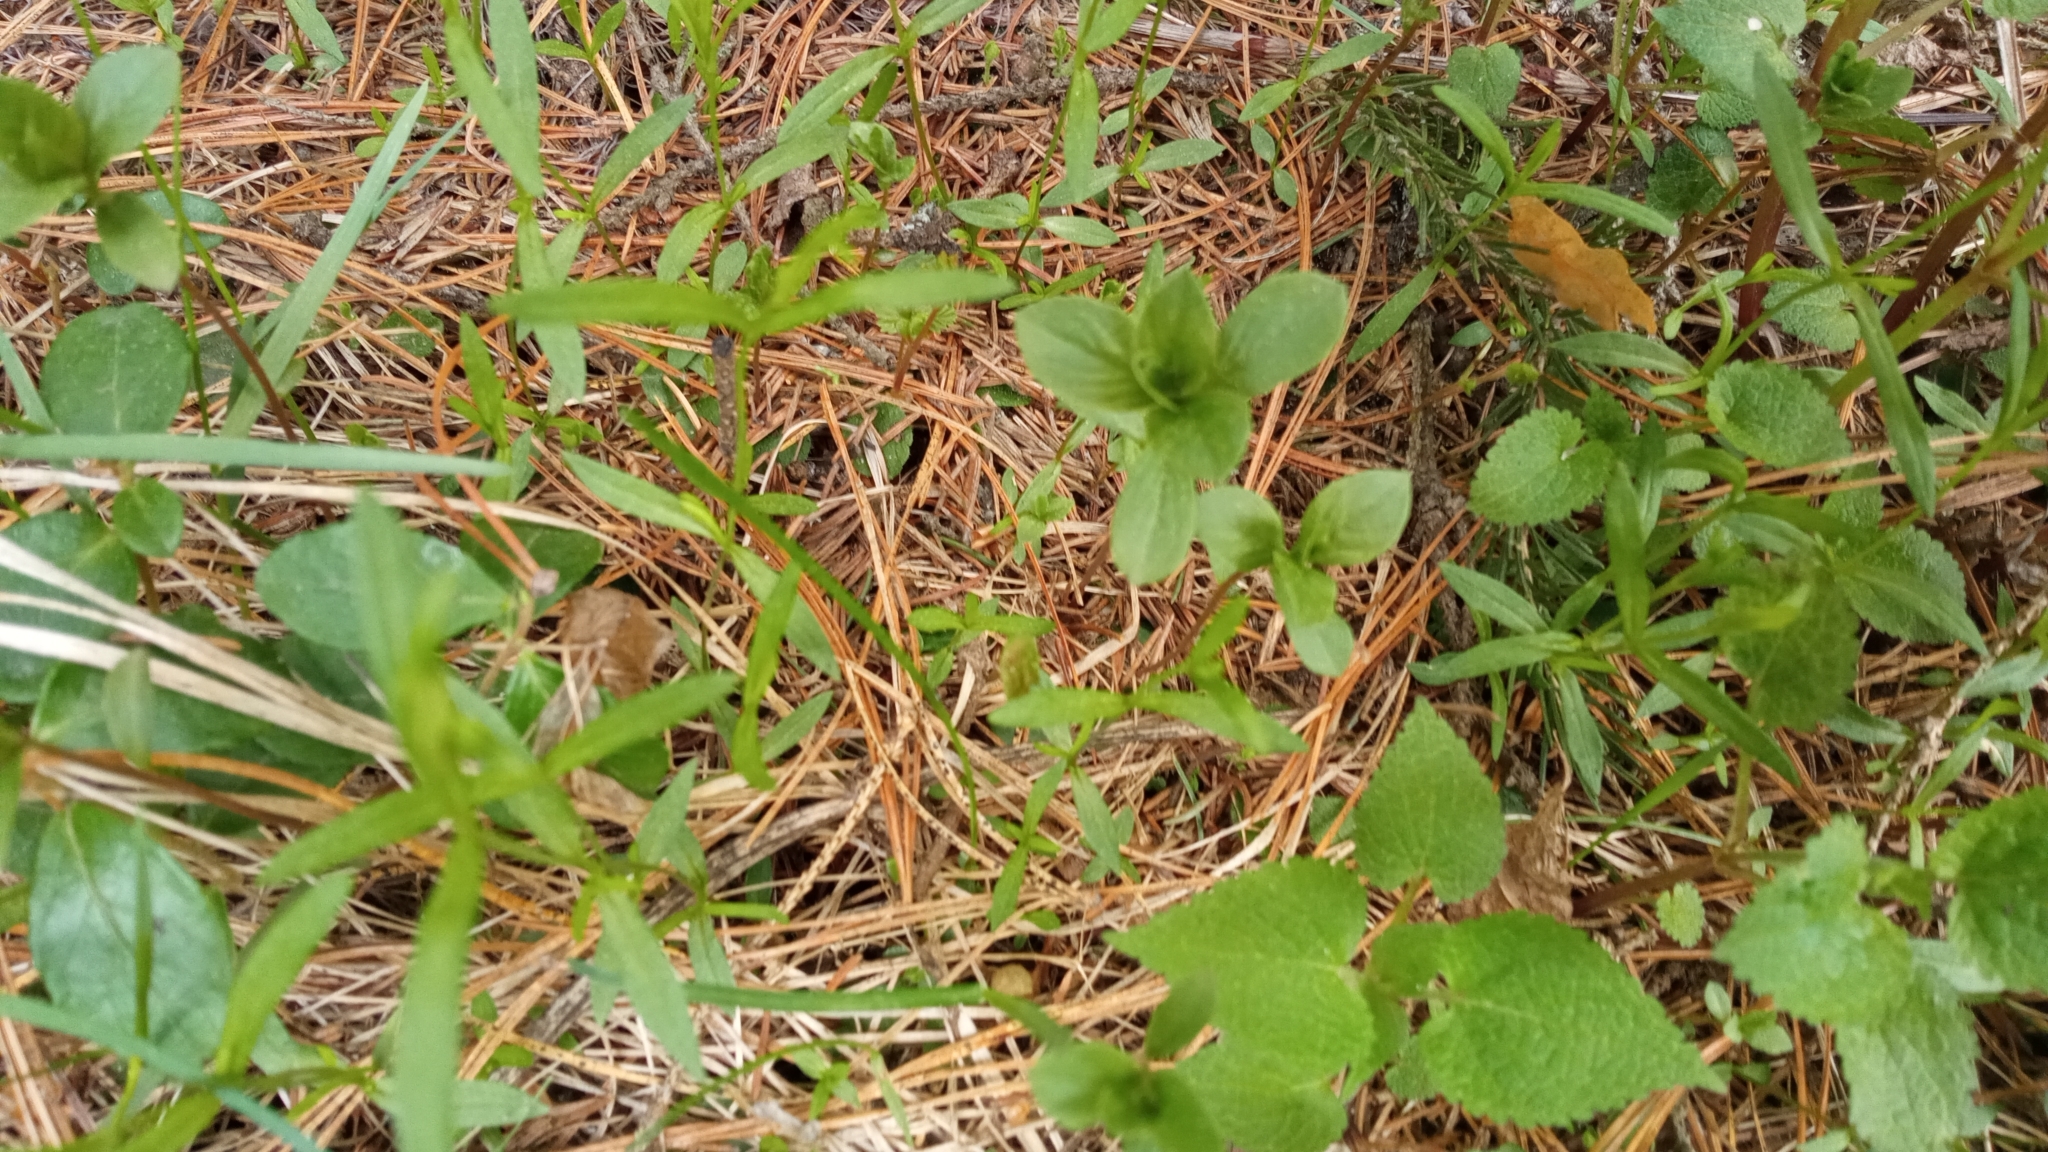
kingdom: Plantae
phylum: Tracheophyta
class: Magnoliopsida
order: Ericales
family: Primulaceae
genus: Lysimachia
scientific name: Lysimachia europaea
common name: Arctic starflower
